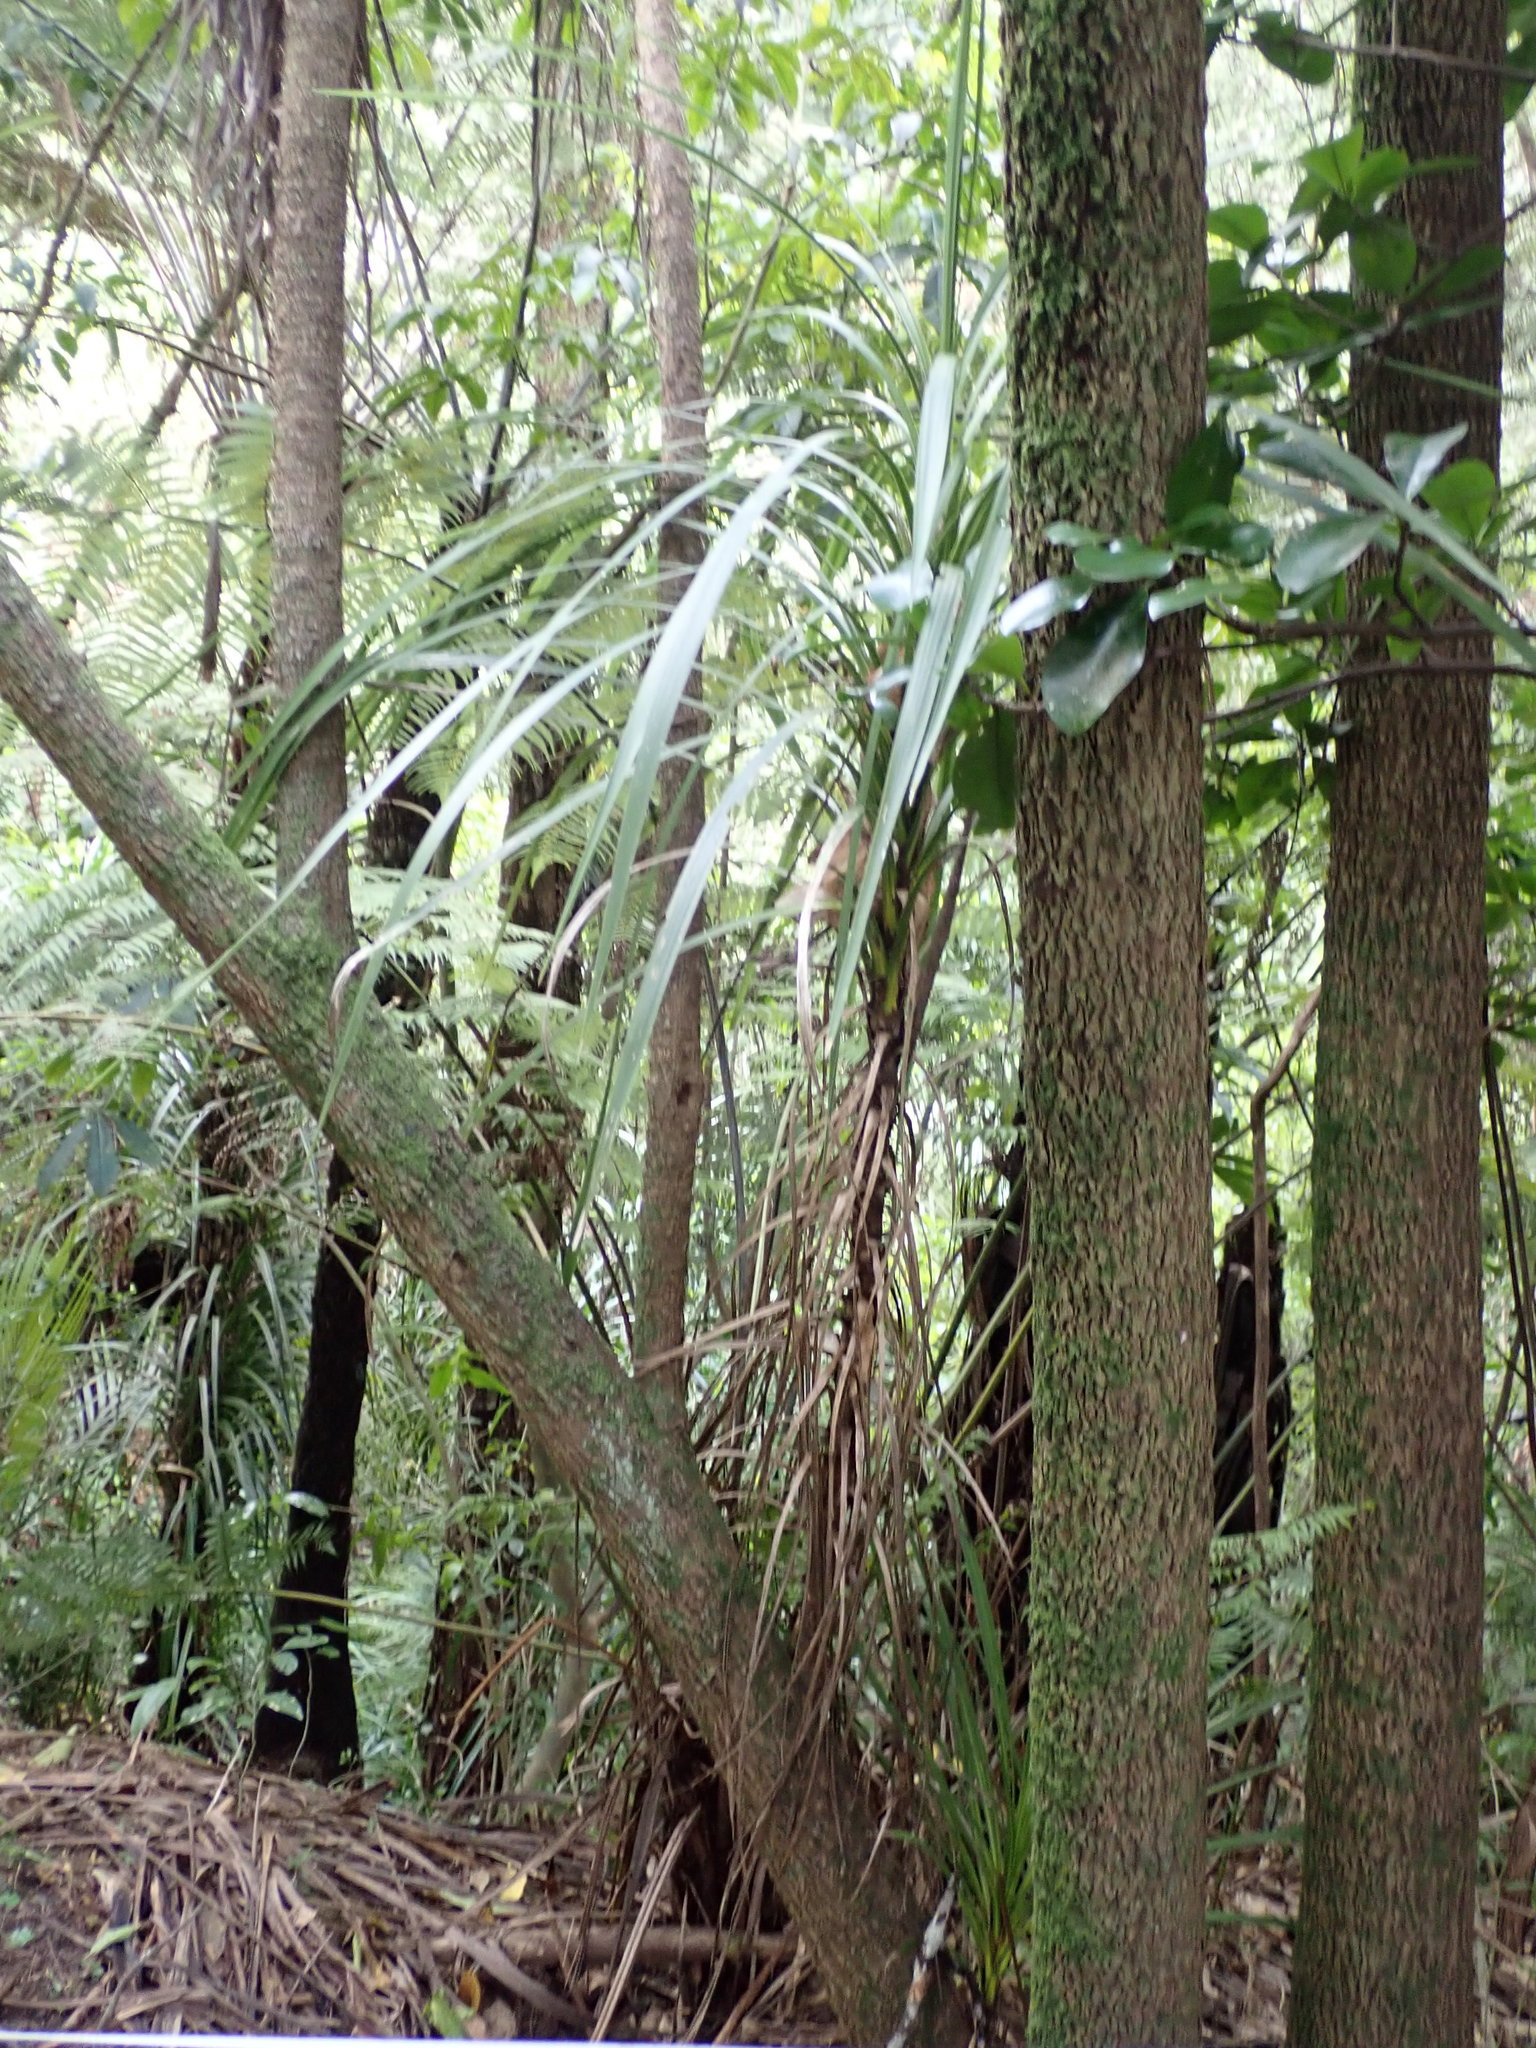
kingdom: Plantae
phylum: Tracheophyta
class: Liliopsida
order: Asparagales
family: Asparagaceae
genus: Cordyline
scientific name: Cordyline australis
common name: Cabbage-palm
